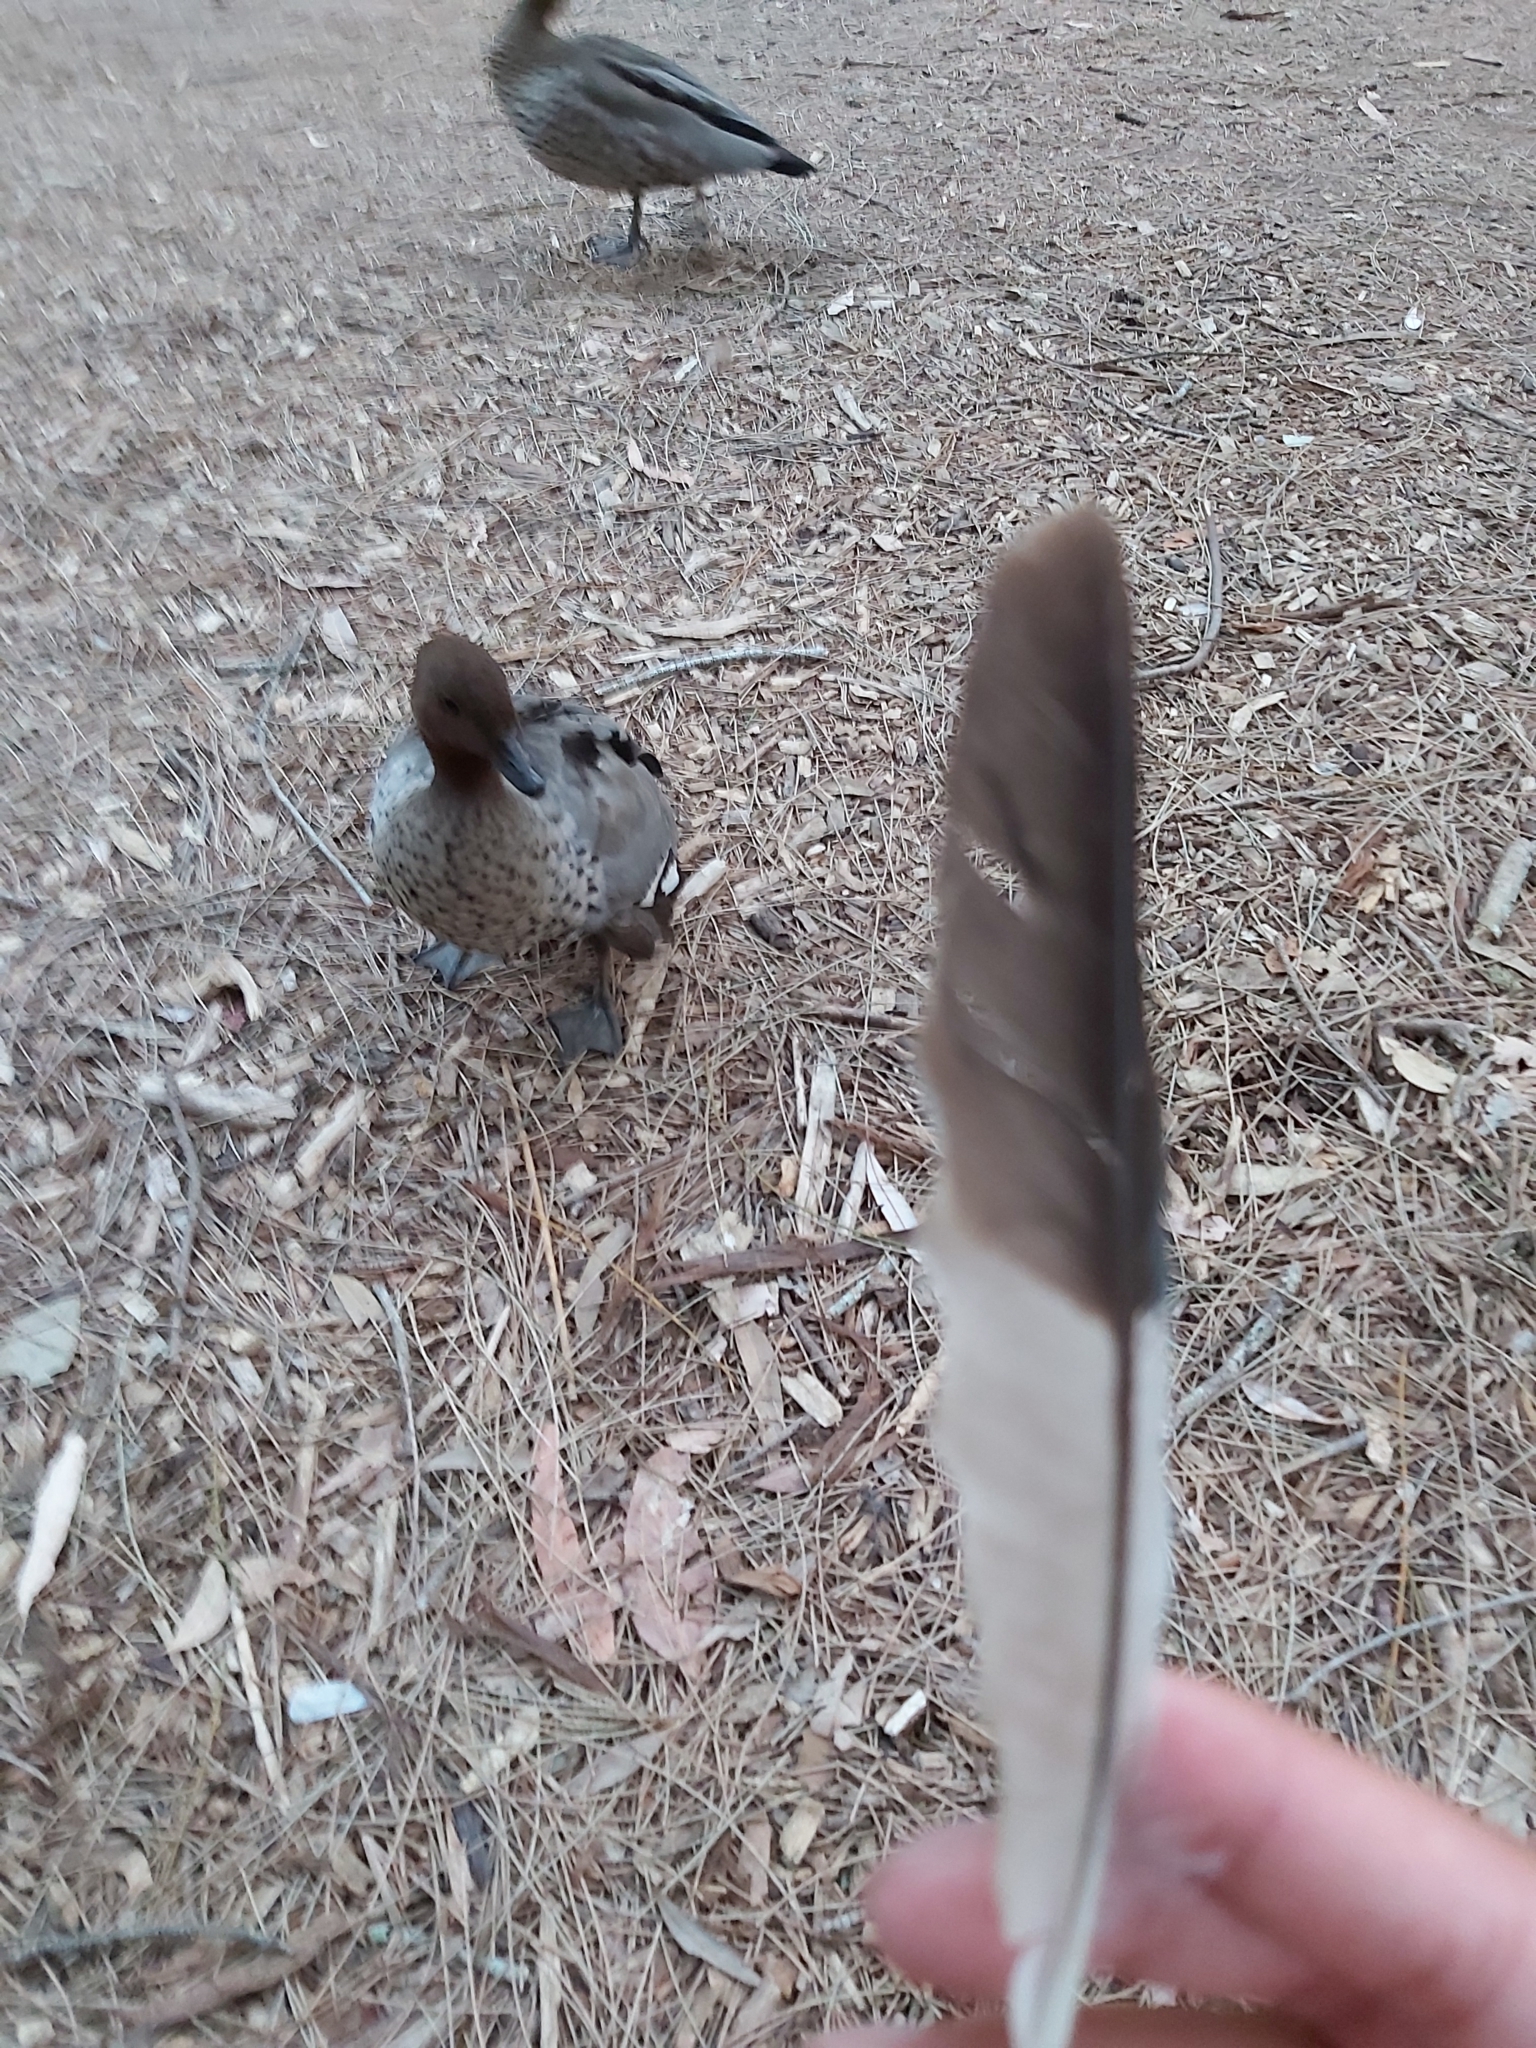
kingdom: Animalia
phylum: Chordata
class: Aves
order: Coraciiformes
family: Alcedinidae
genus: Dacelo
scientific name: Dacelo novaeguineae
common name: Laughing kookaburra
